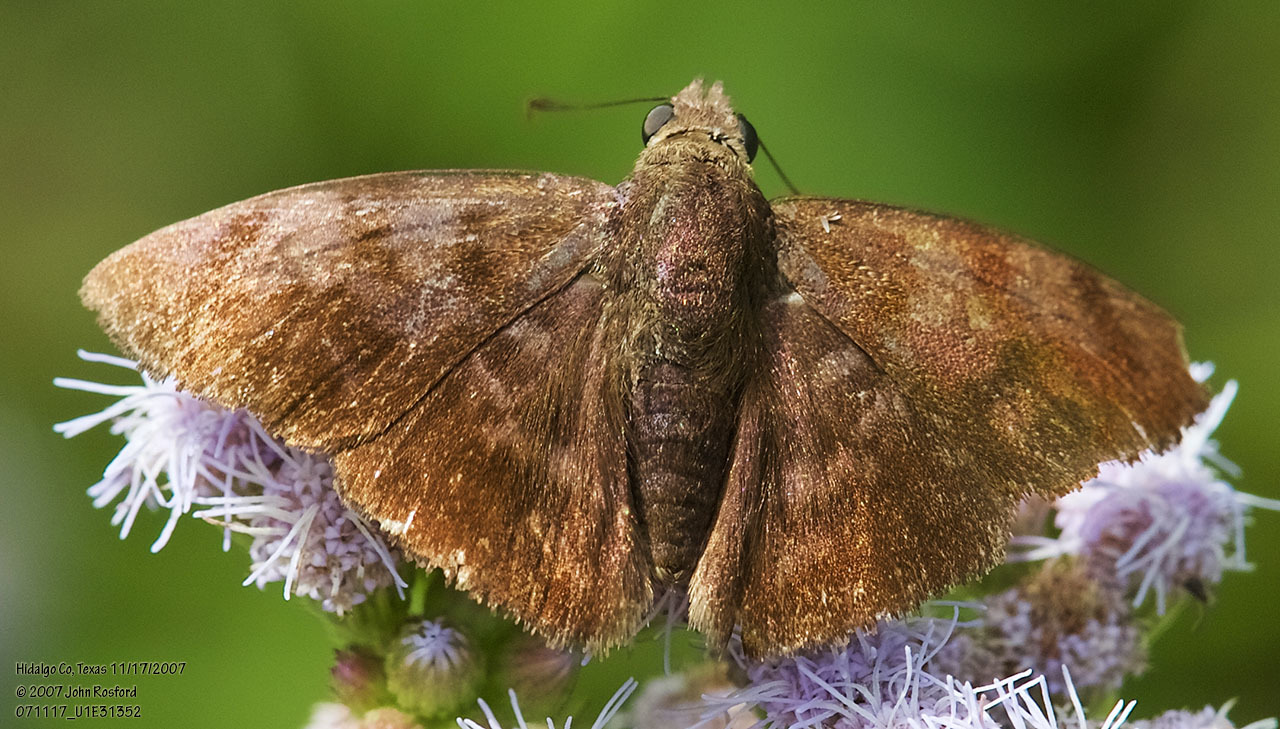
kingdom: Animalia
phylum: Arthropoda
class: Insecta
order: Lepidoptera
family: Hesperiidae
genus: Pellicia
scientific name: Pellicia costimacula
